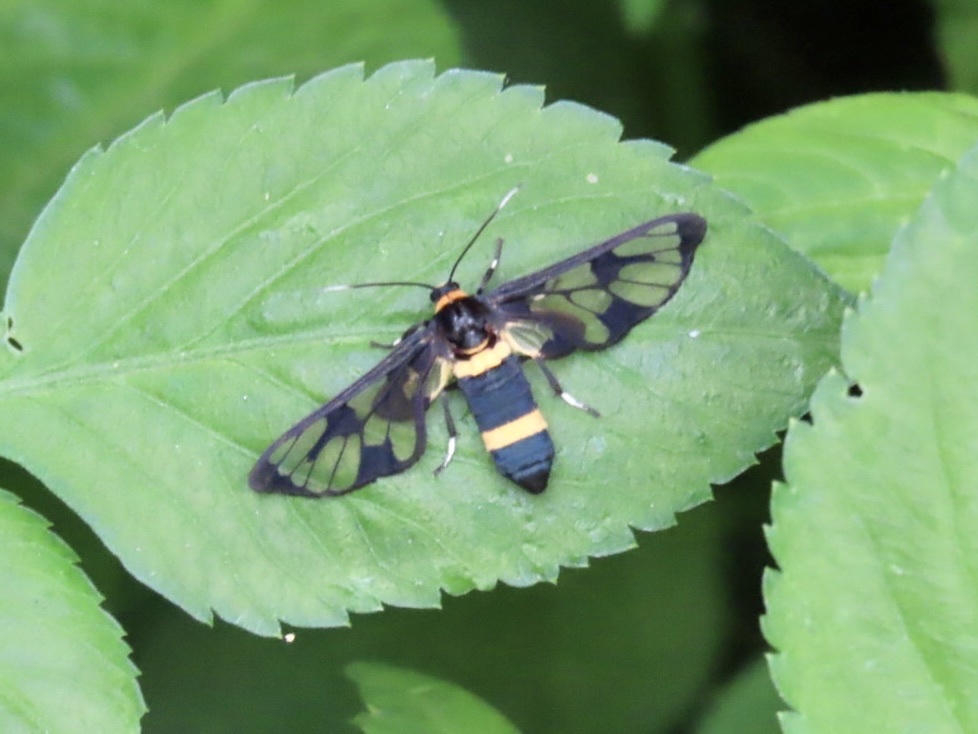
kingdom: Animalia
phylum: Arthropoda
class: Insecta
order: Lepidoptera
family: Erebidae
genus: Syntomoides
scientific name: Syntomoides imaon
